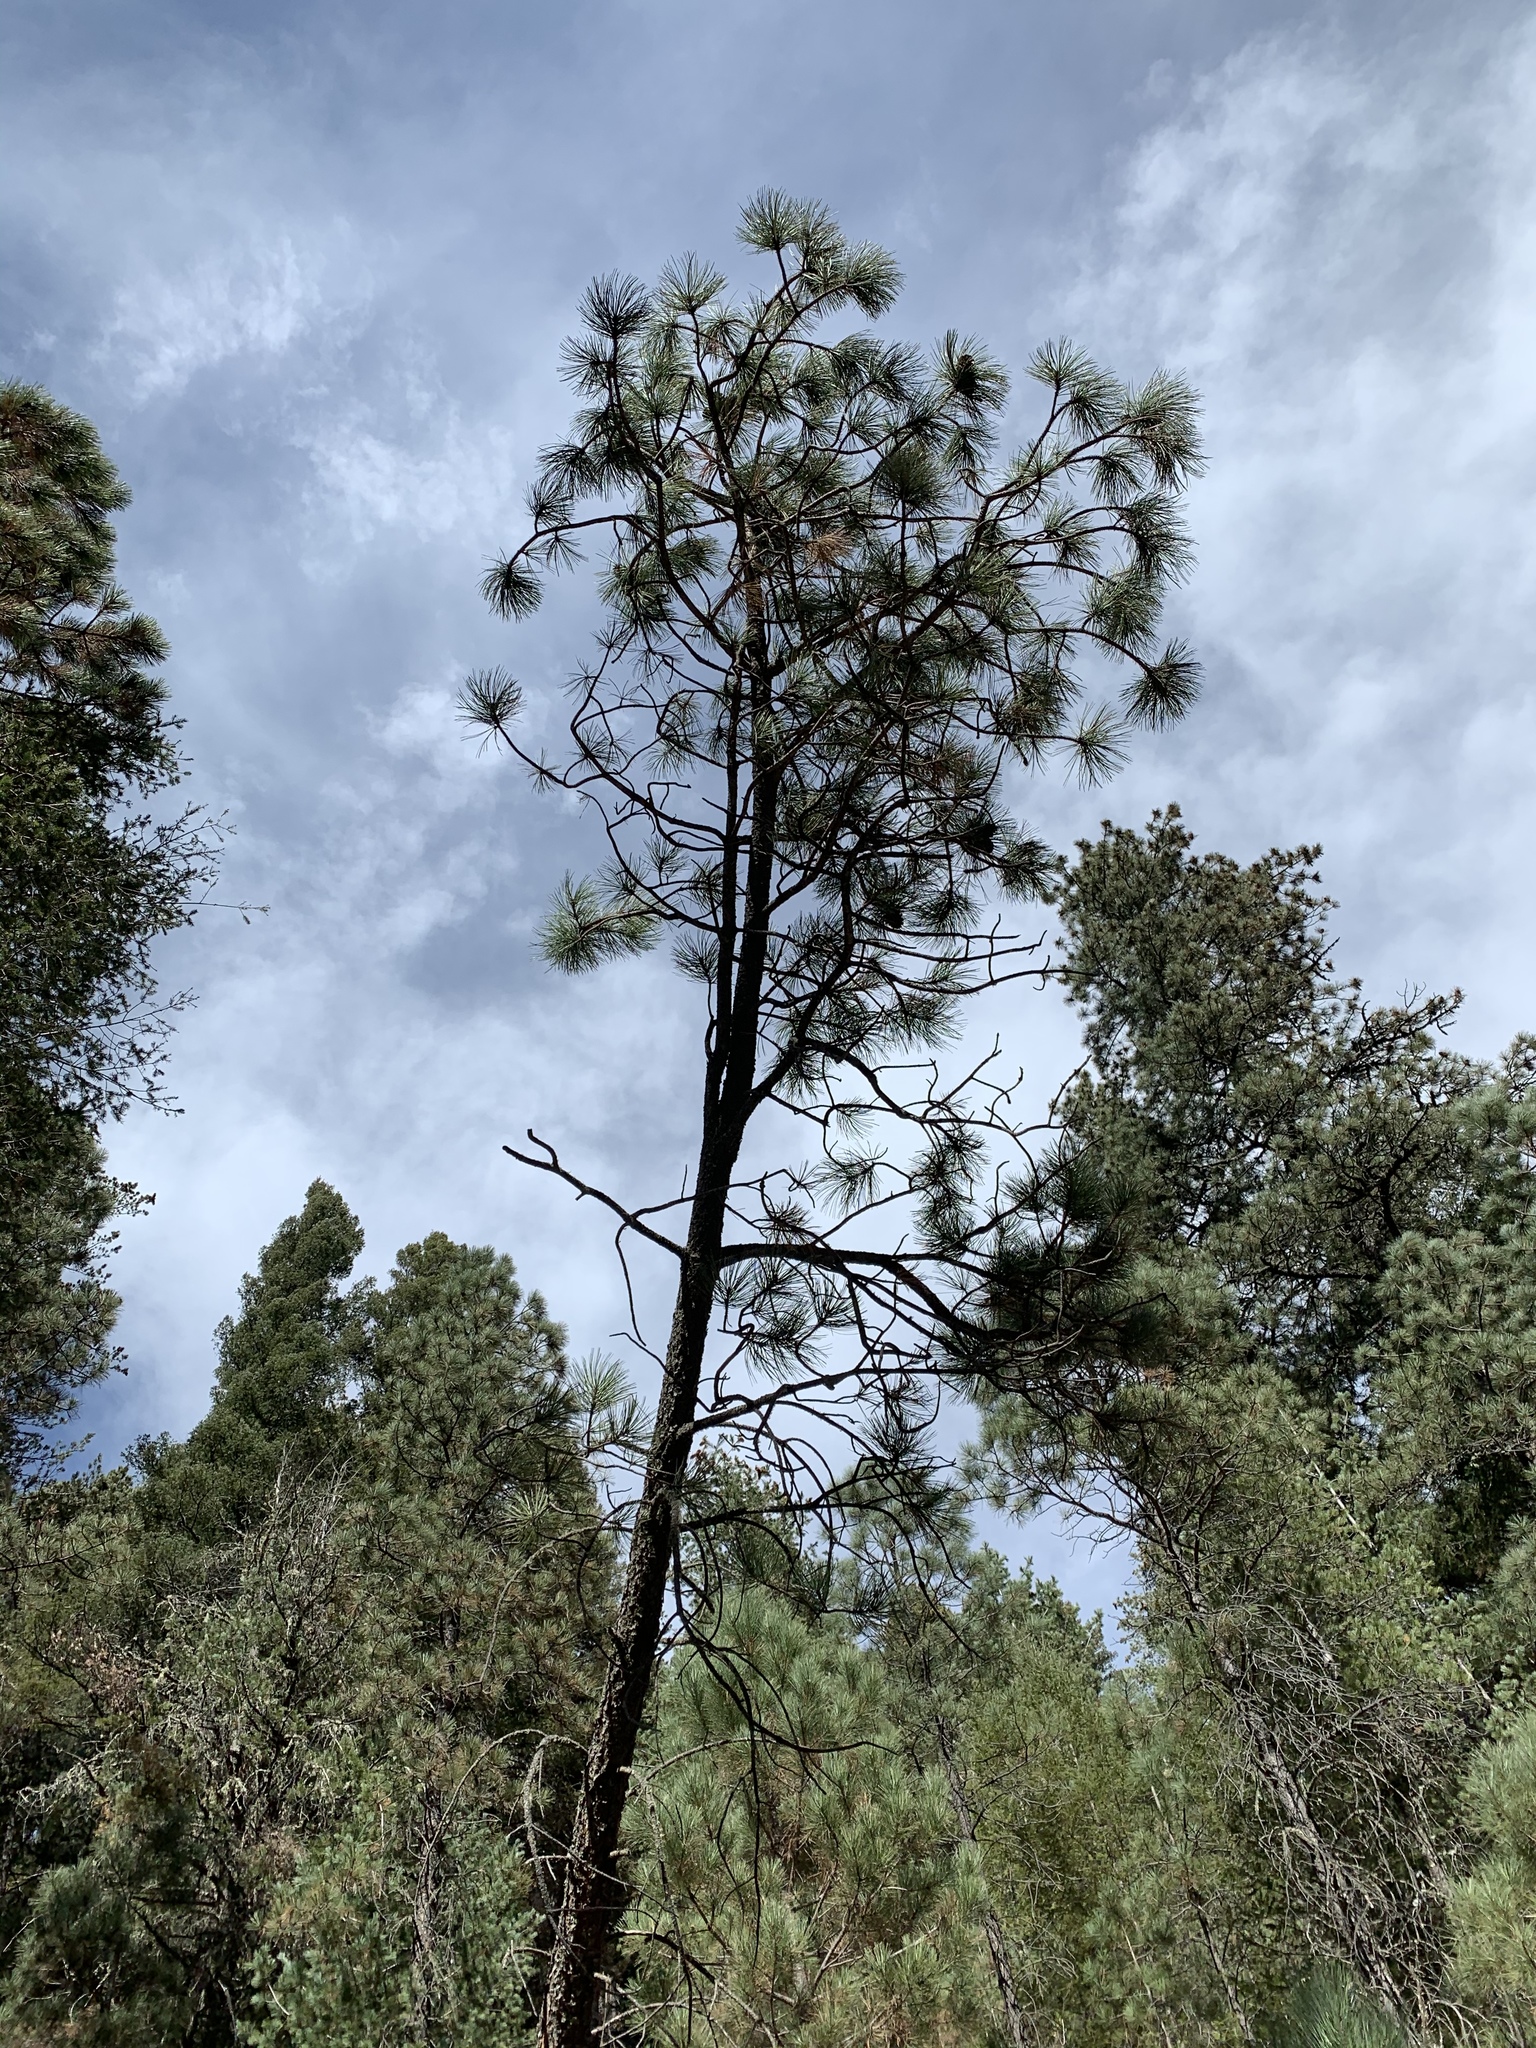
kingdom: Plantae
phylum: Tracheophyta
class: Pinopsida
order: Pinales
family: Pinaceae
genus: Pinus
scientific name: Pinus ponderosa
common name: Western yellow-pine
